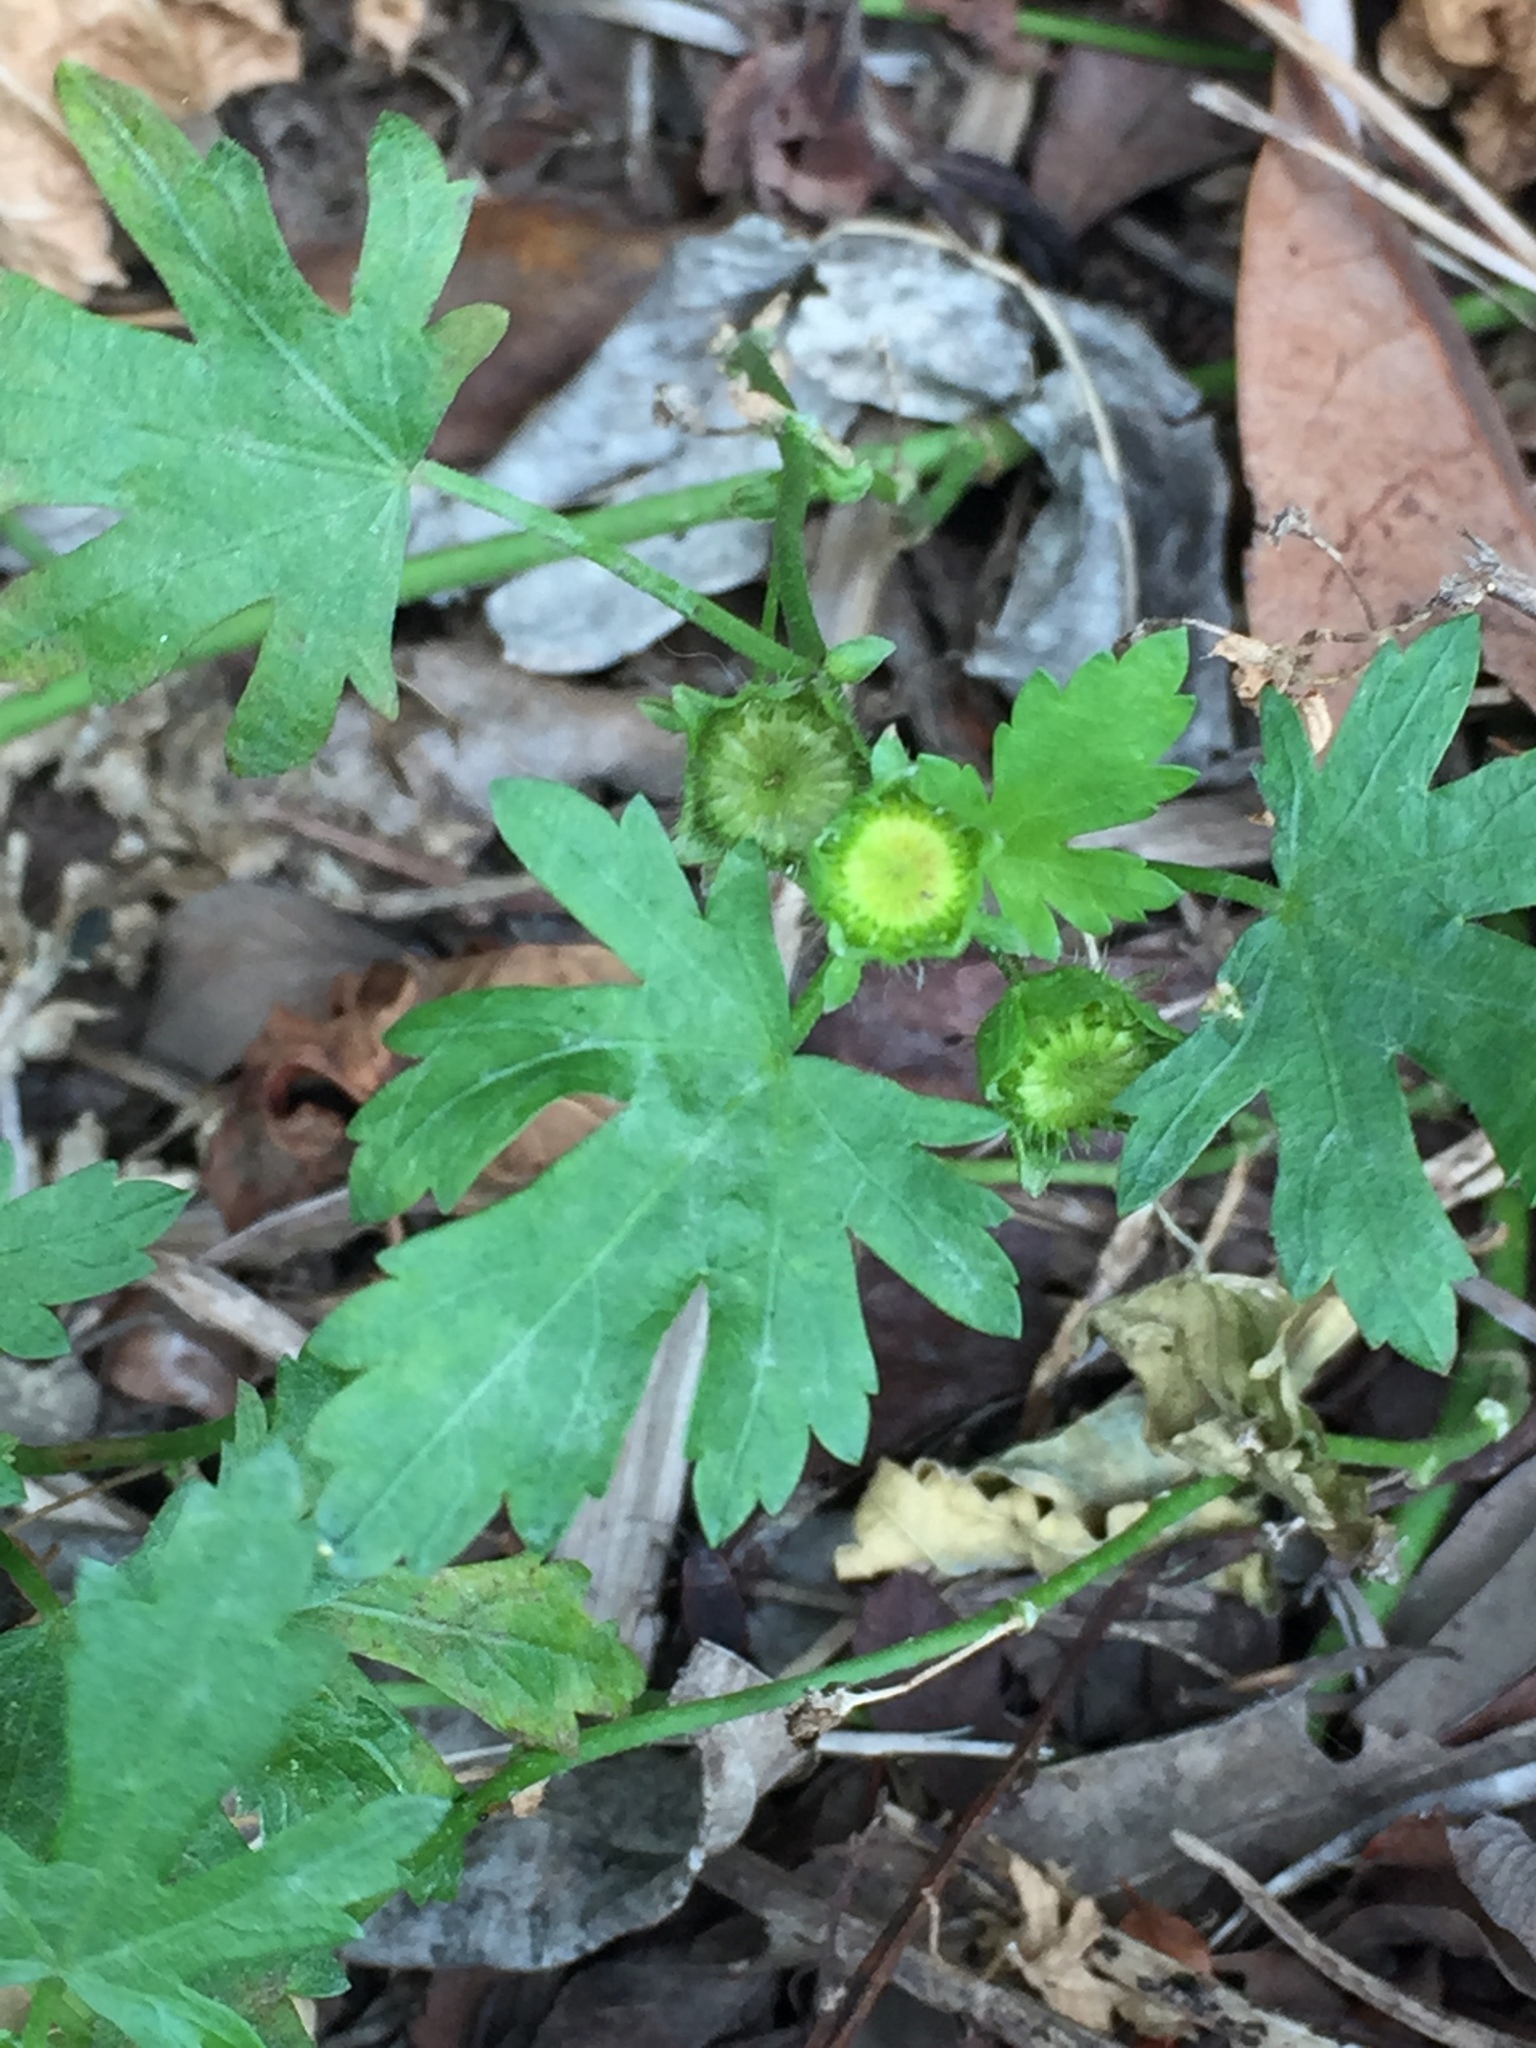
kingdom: Plantae
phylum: Tracheophyta
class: Magnoliopsida
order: Malvales
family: Malvaceae
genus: Modiola
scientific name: Modiola caroliniana
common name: Carolina bristlemallow
